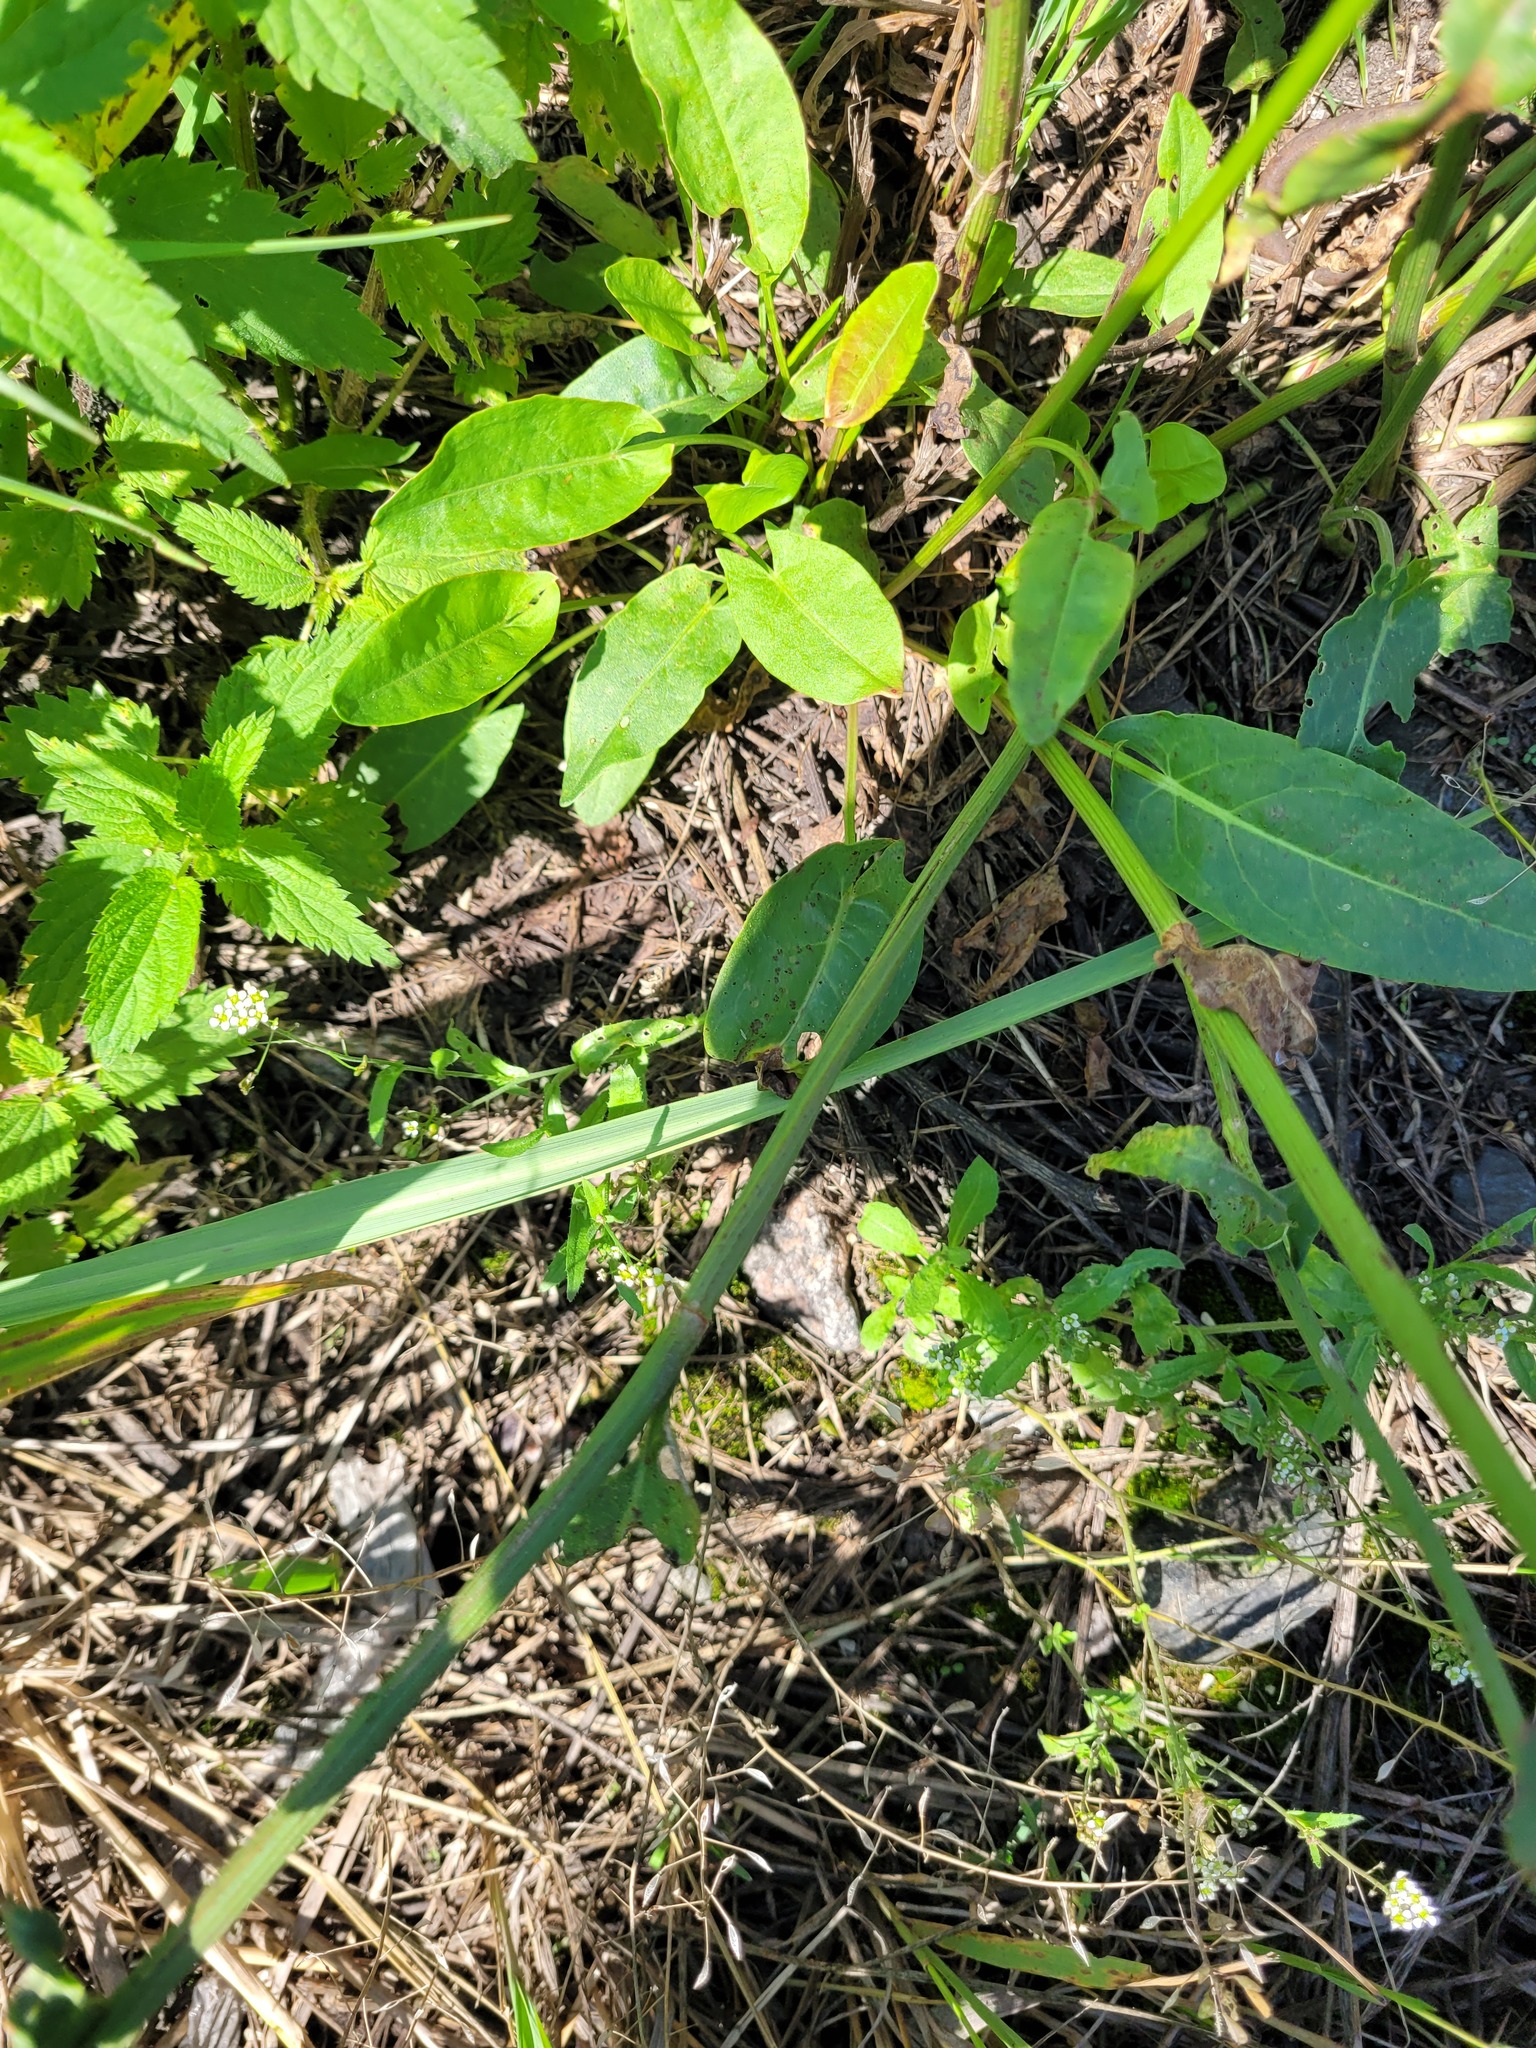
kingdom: Plantae
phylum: Tracheophyta
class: Magnoliopsida
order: Brassicales
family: Brassicaceae
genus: Capsella
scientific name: Capsella bursa-pastoris
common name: Shepherd's purse
